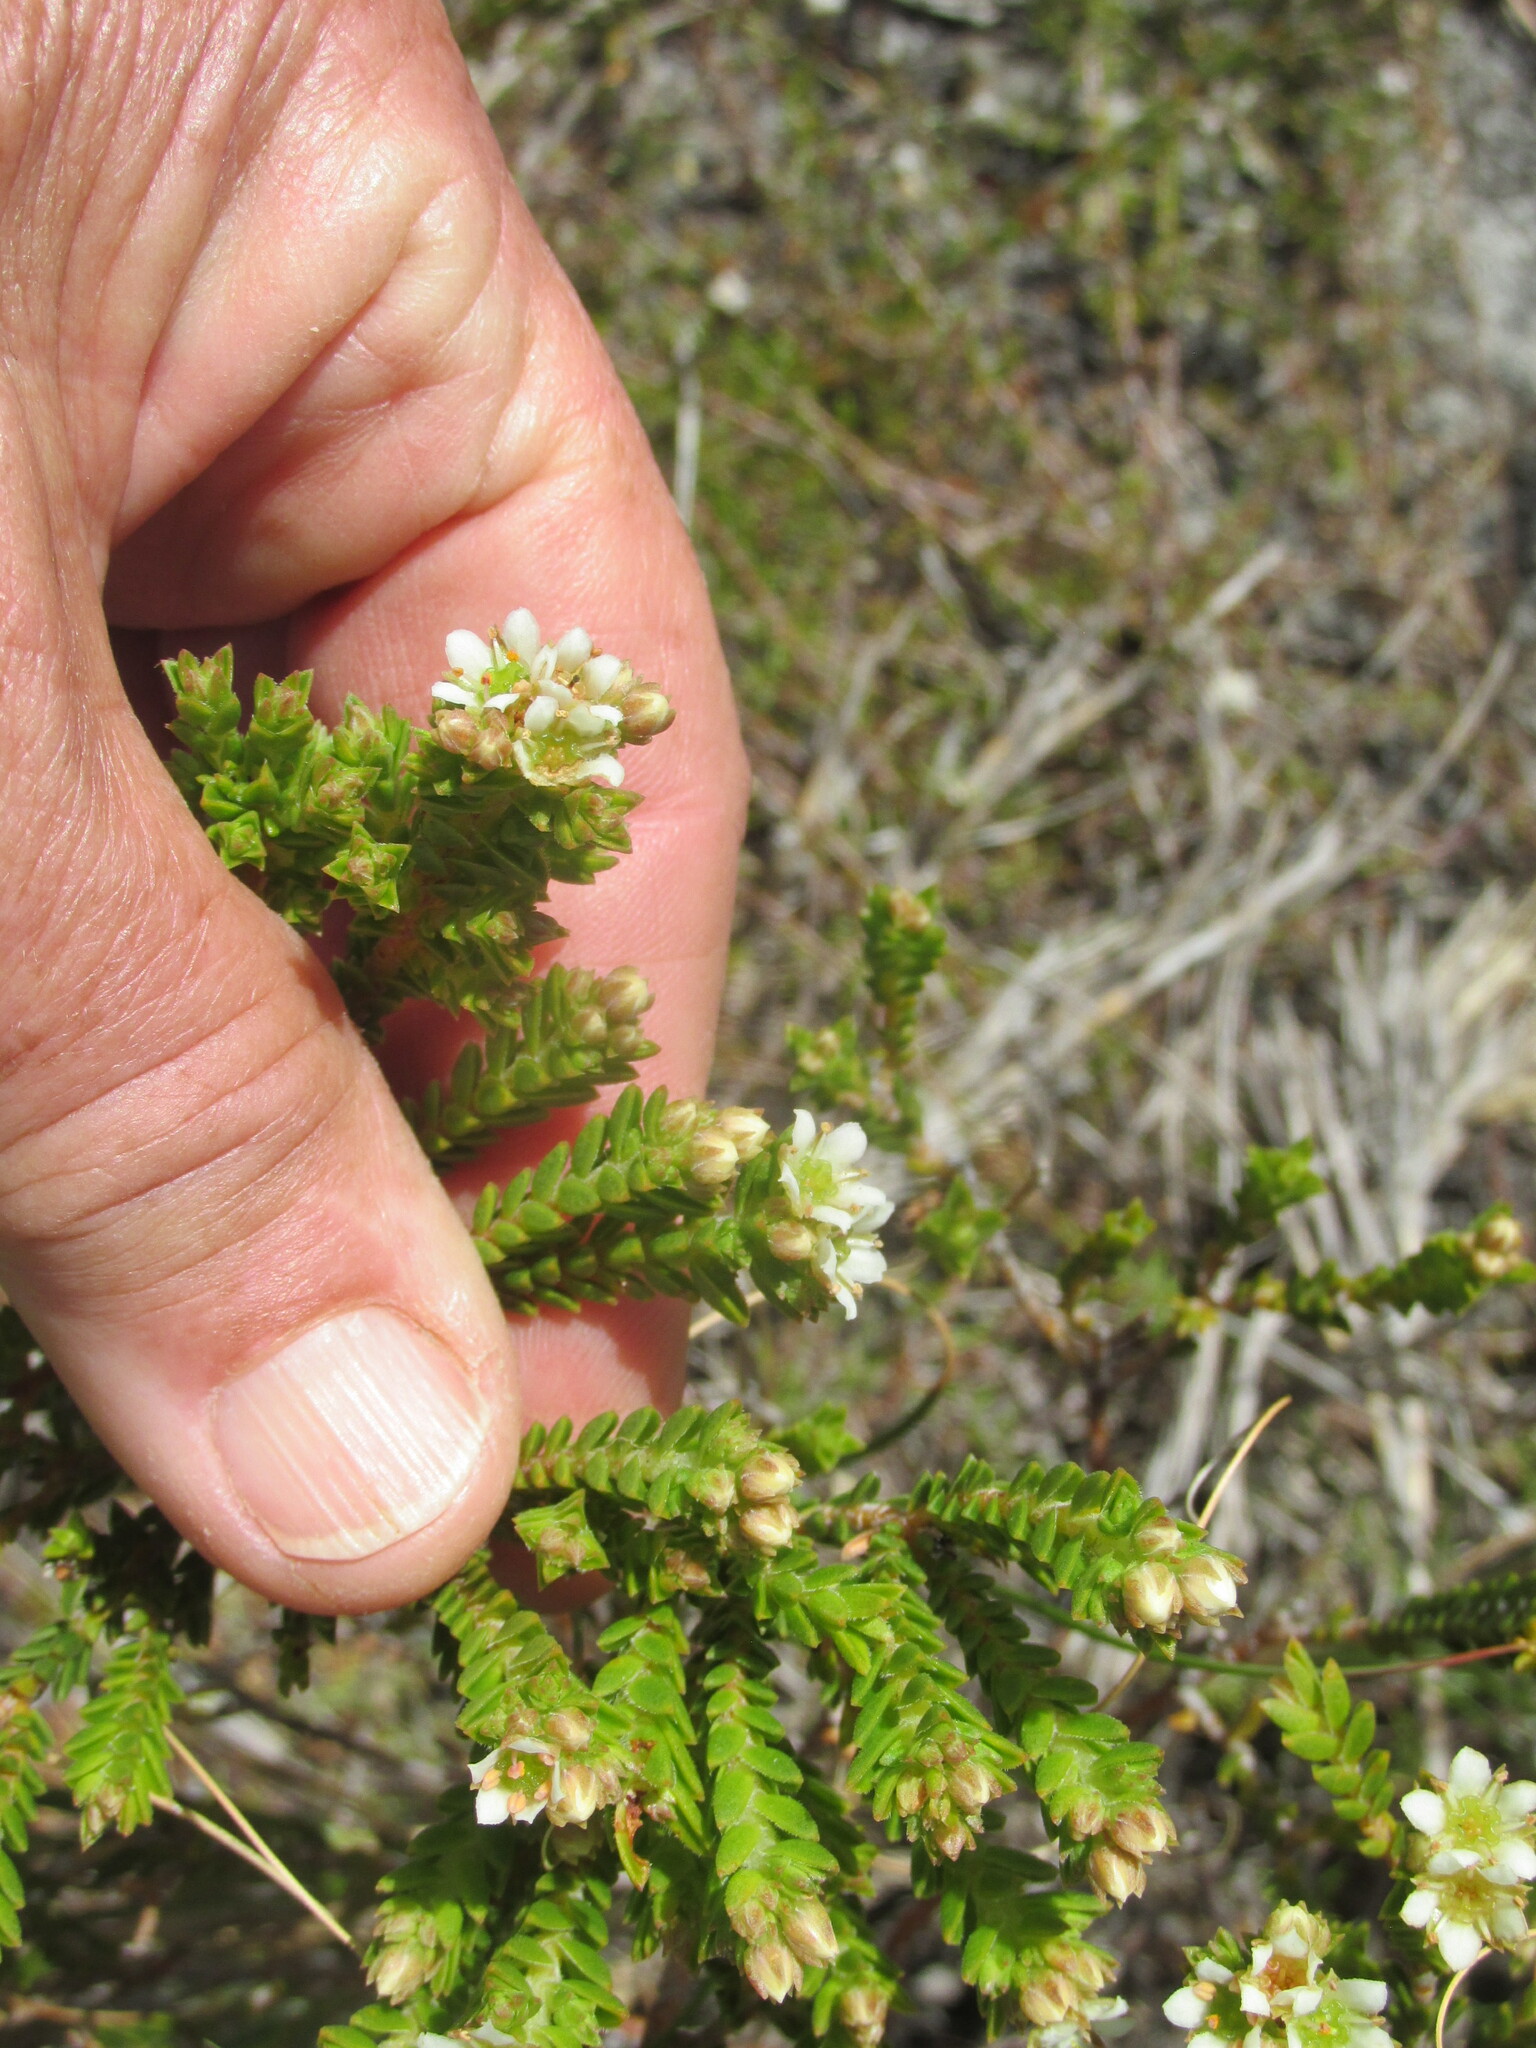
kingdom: Plantae
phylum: Tracheophyta
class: Magnoliopsida
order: Sapindales
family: Rutaceae
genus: Diosma
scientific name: Diosma oppositifolia
